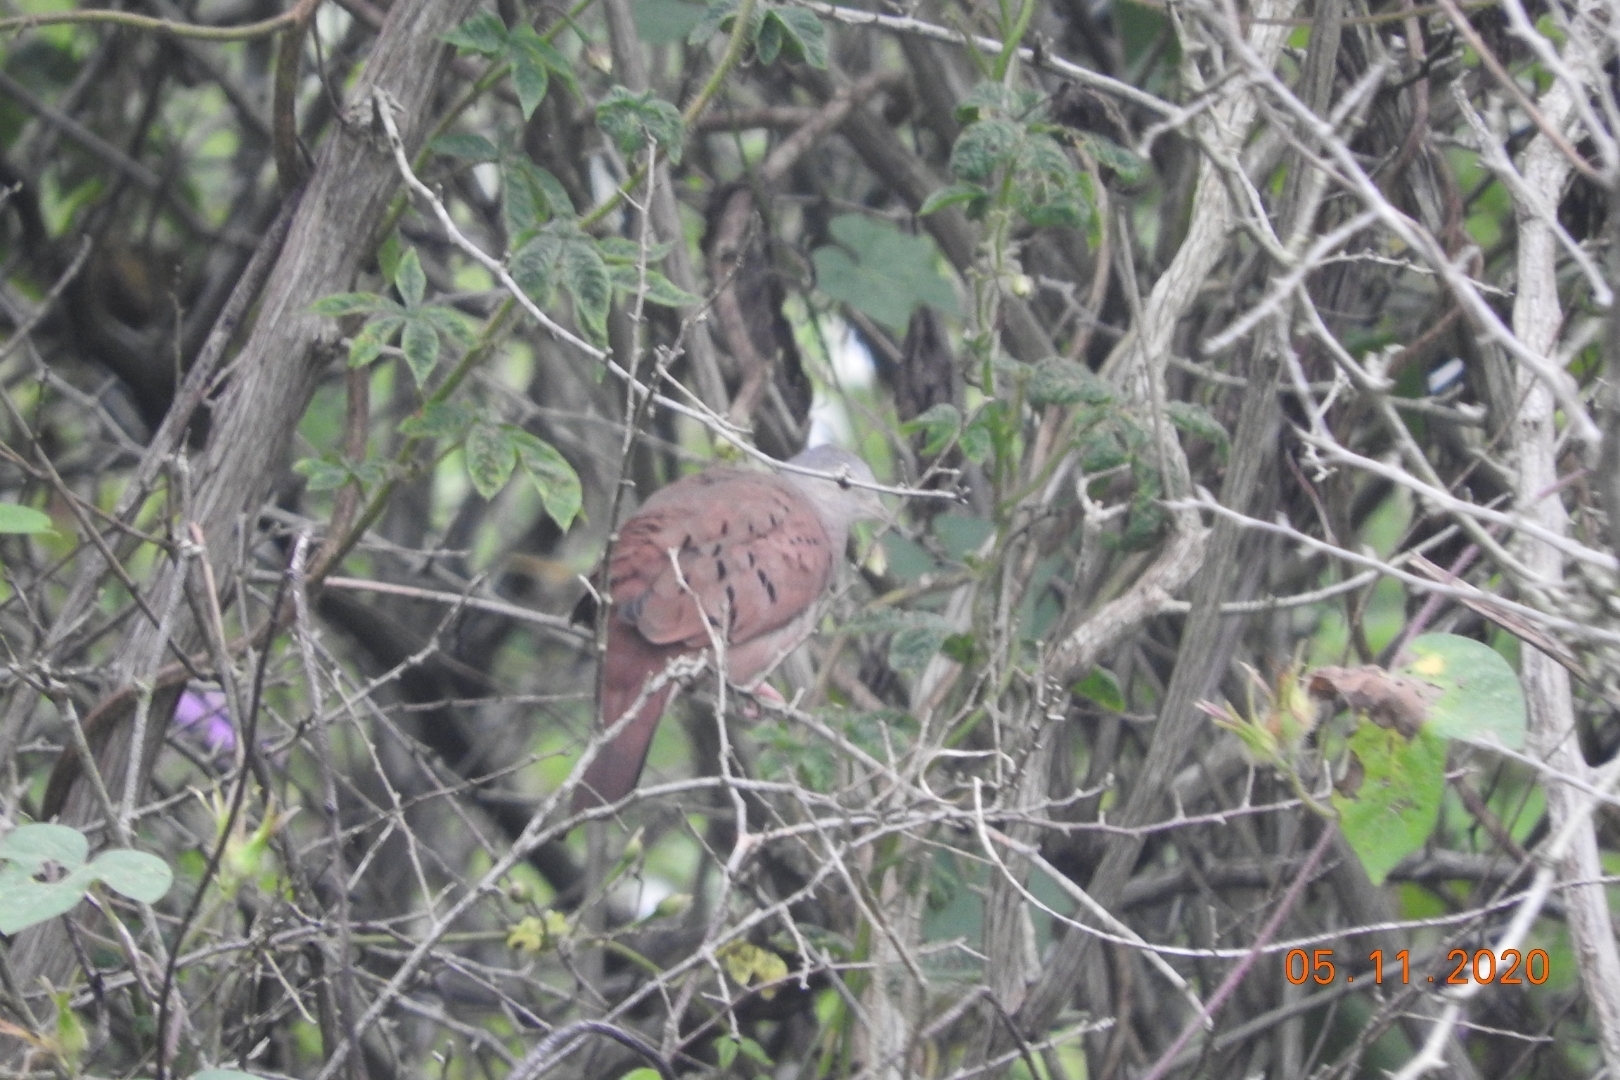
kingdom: Animalia
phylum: Chordata
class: Aves
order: Columbiformes
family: Columbidae
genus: Columbina
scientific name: Columbina talpacoti
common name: Ruddy ground dove
